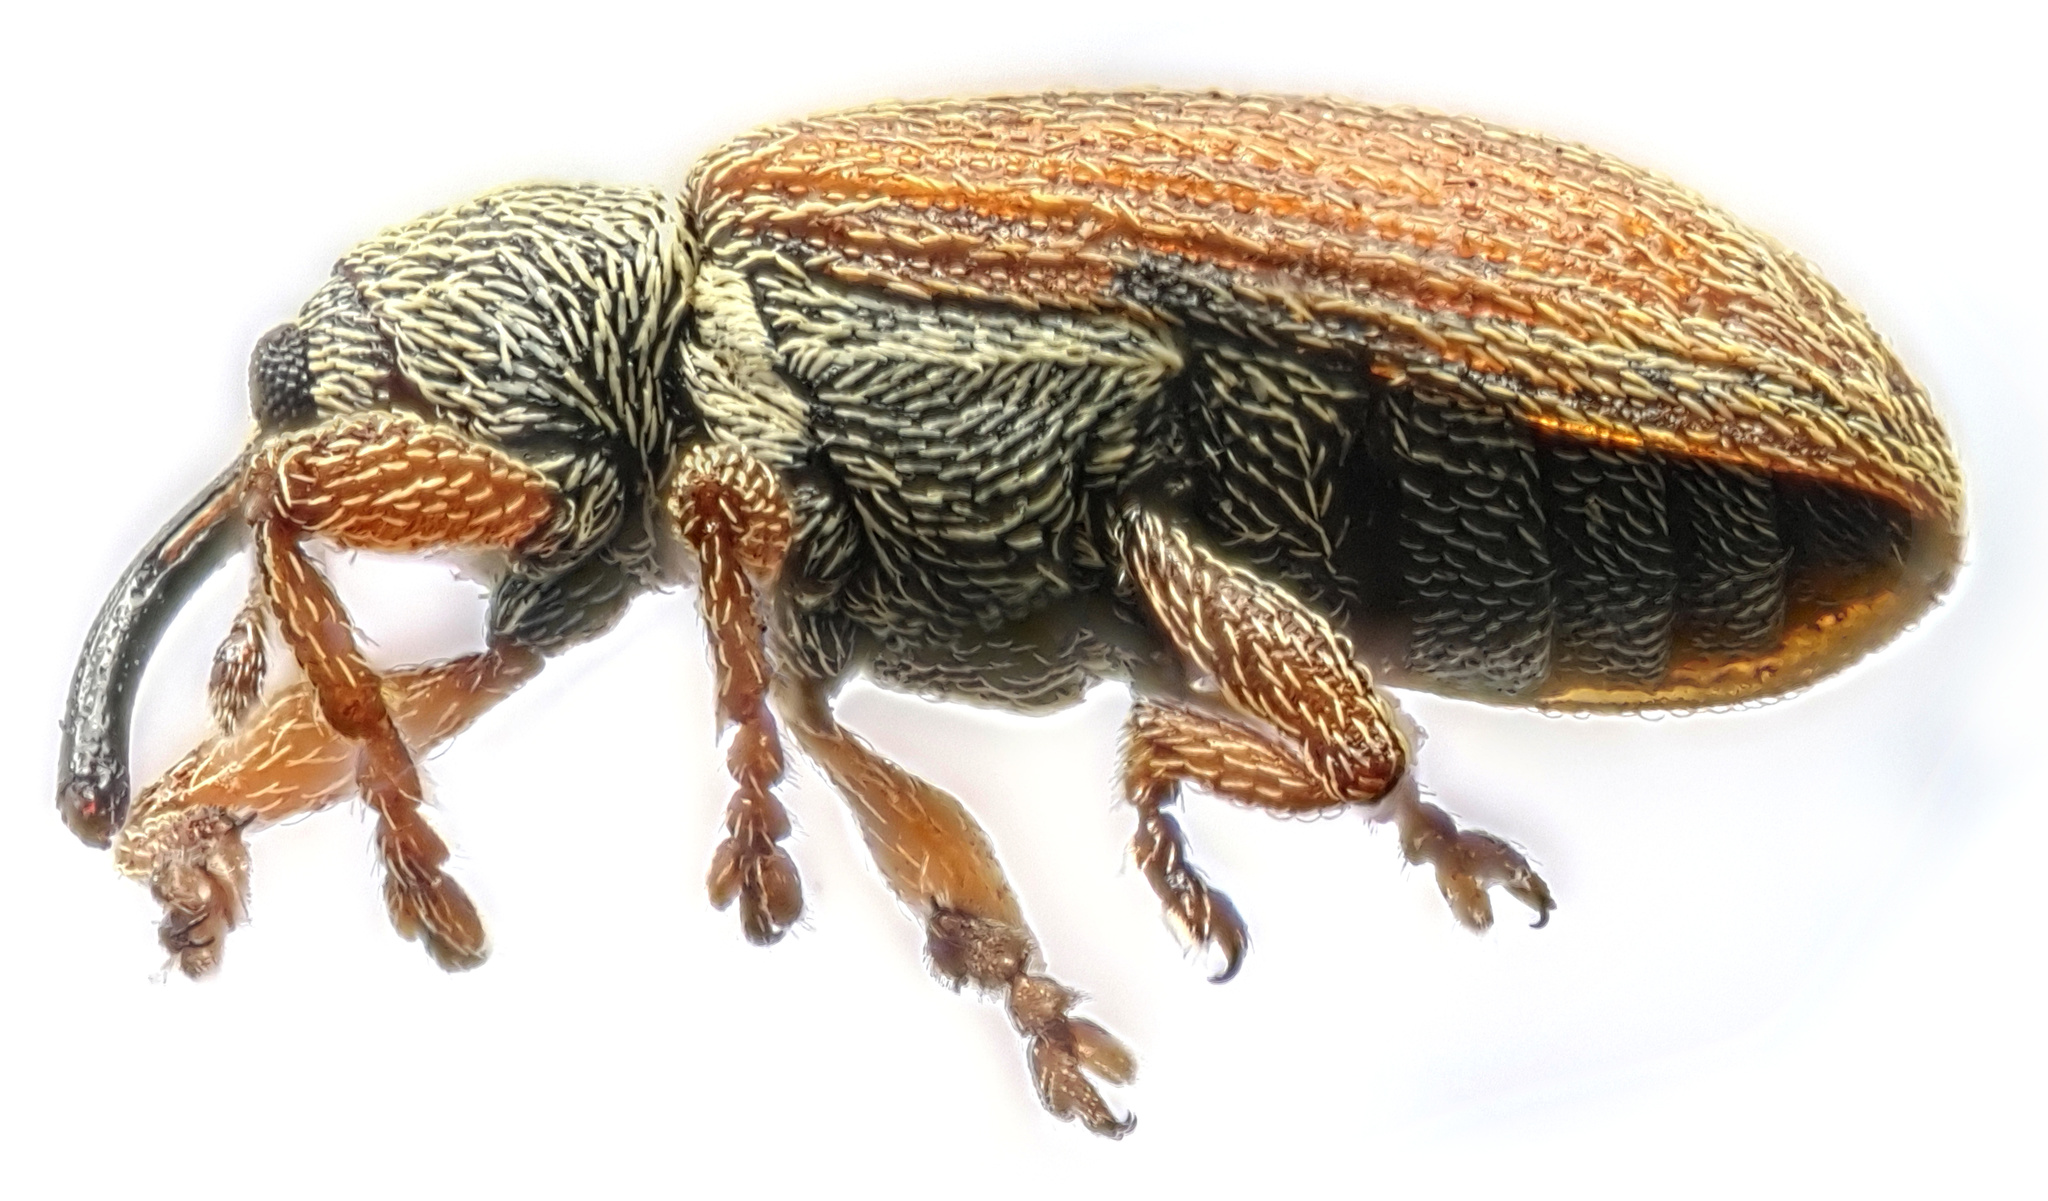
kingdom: Animalia
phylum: Arthropoda
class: Insecta
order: Coleoptera
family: Curculionidae
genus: Brachonyx
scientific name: Brachonyx pineti
